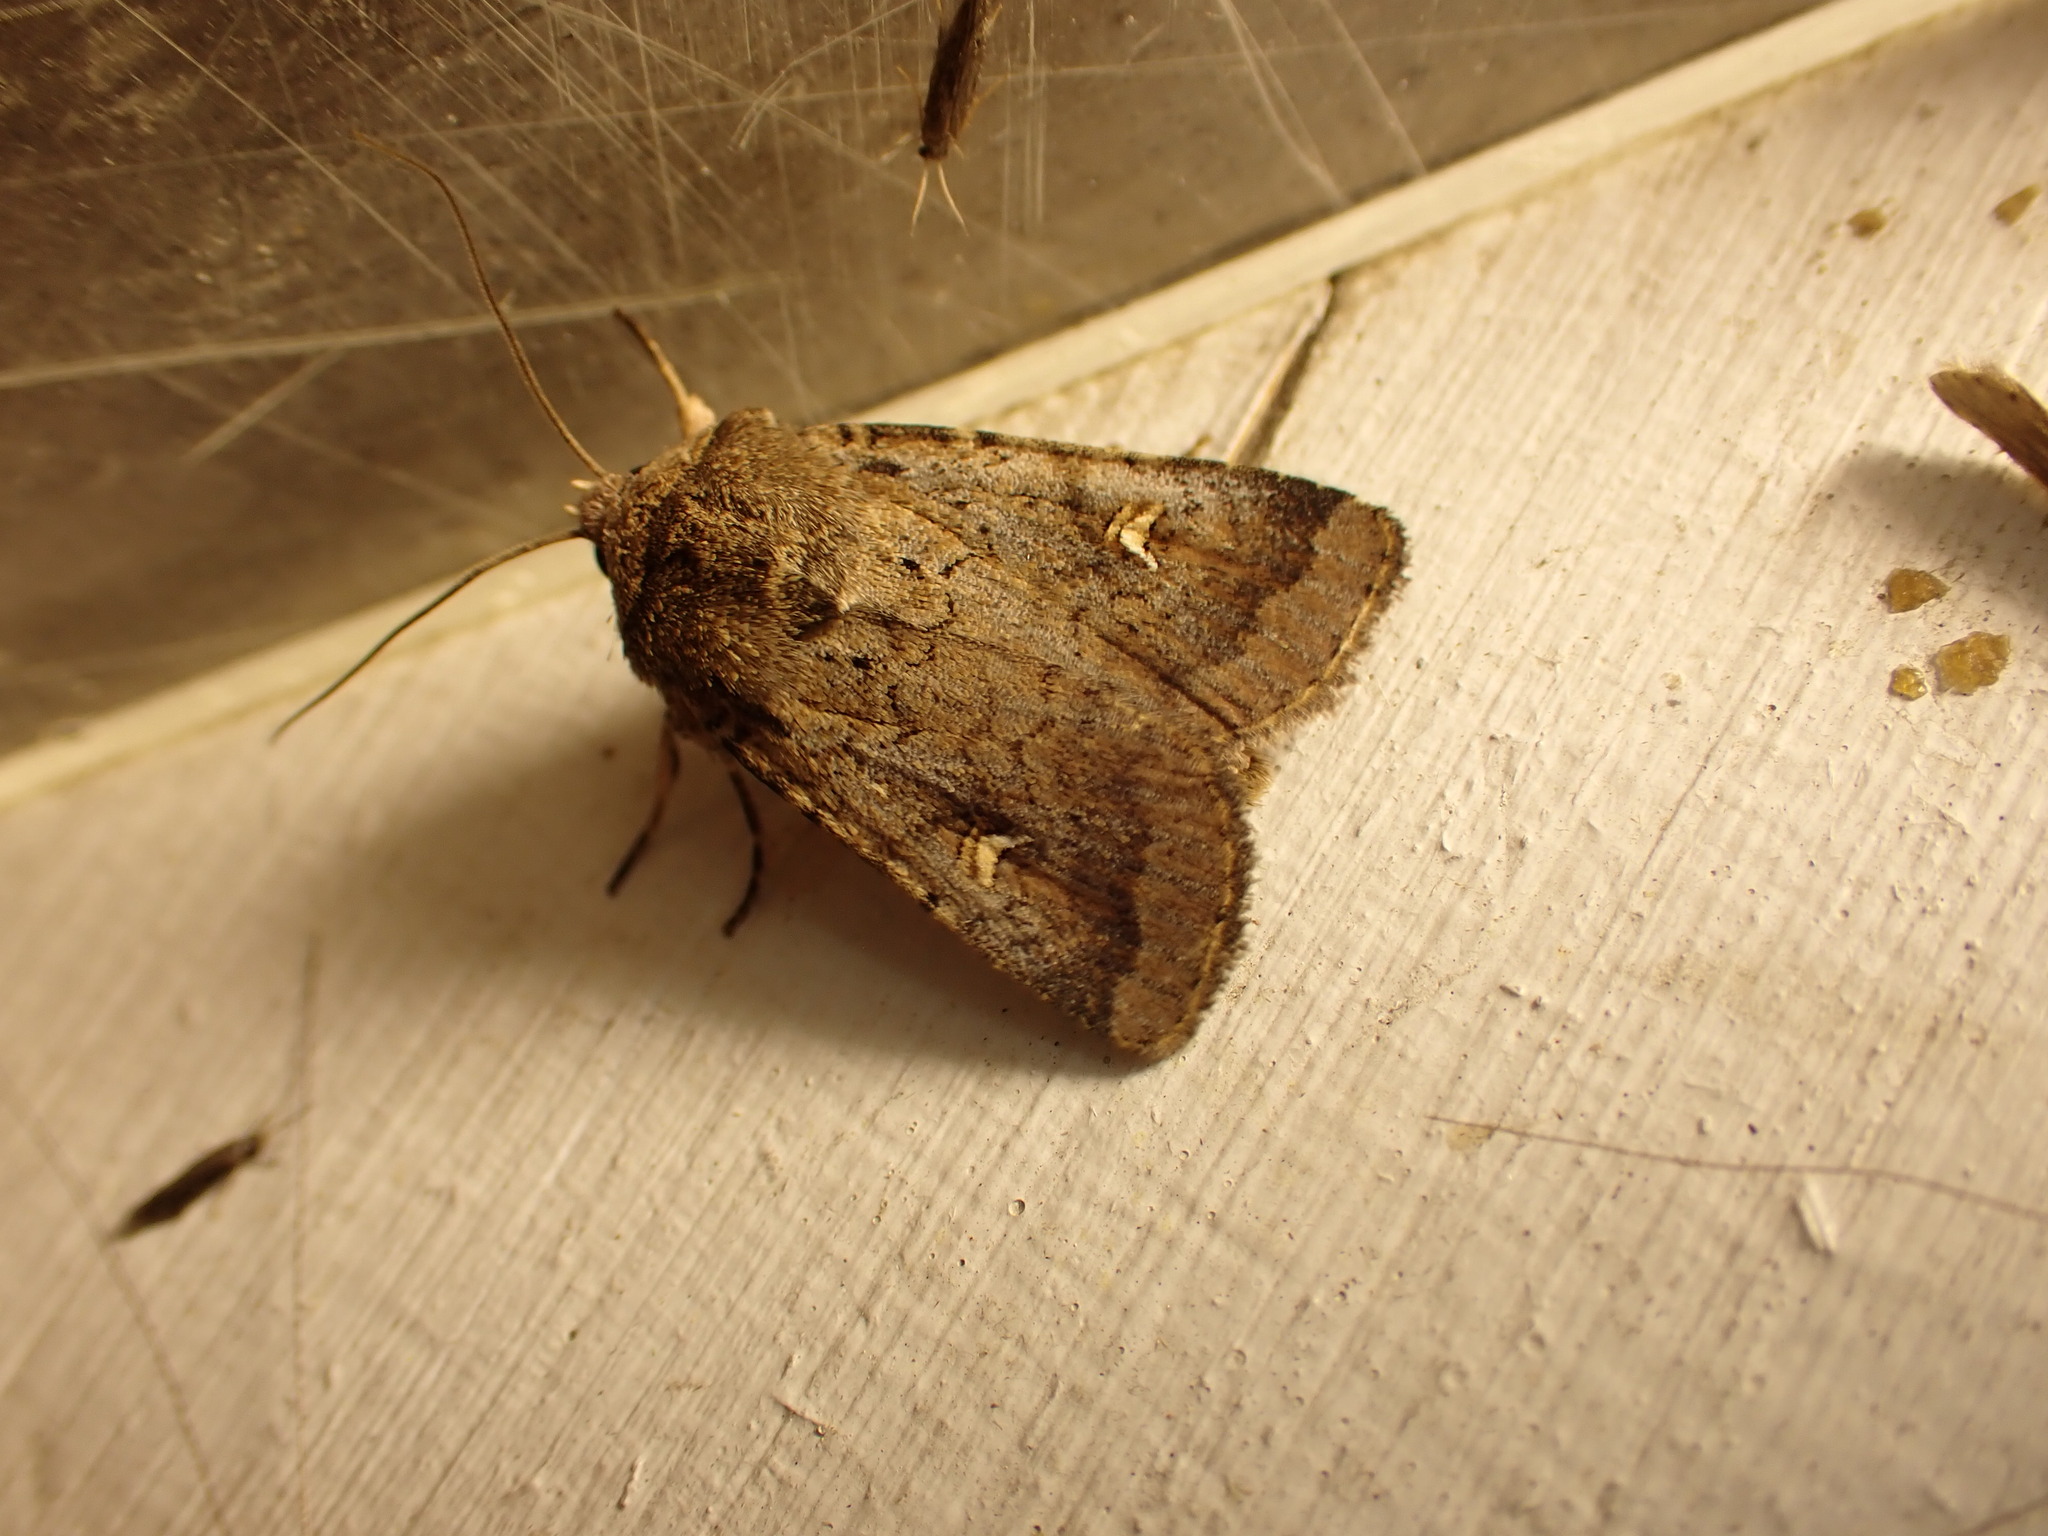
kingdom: Animalia
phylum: Arthropoda
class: Insecta
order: Lepidoptera
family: Noctuidae
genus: Proteuxoa
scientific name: Proteuxoa tetronycha
